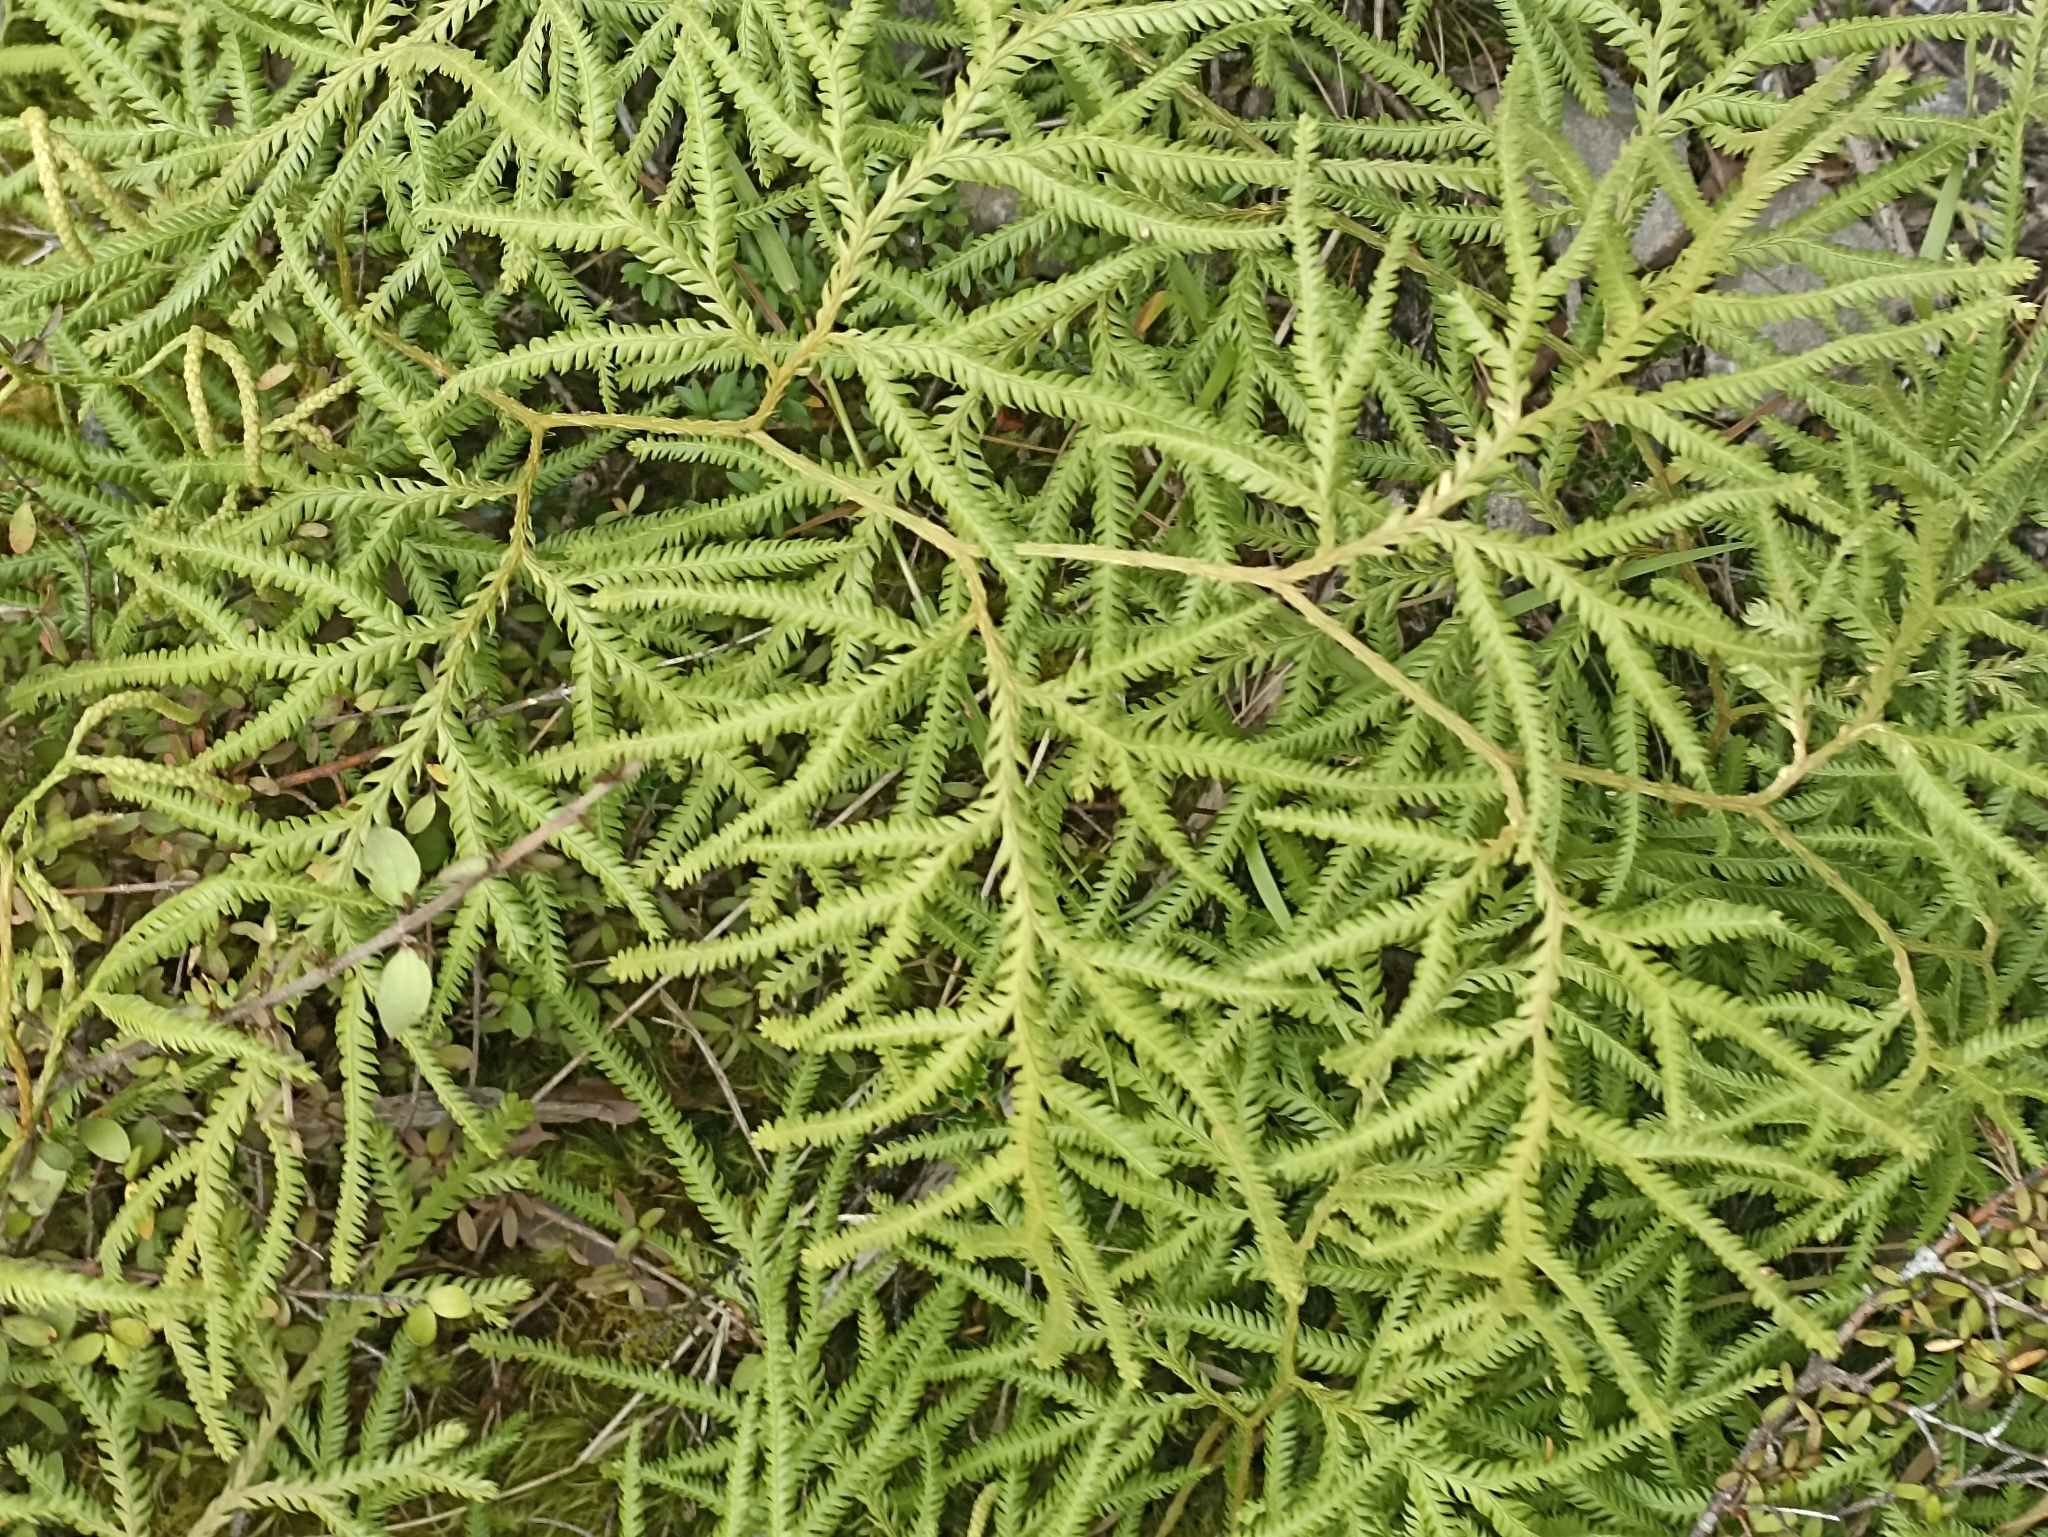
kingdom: Plantae
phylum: Tracheophyta
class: Lycopodiopsida
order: Lycopodiales
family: Lycopodiaceae
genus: Lycopodium
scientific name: Lycopodium volubile
